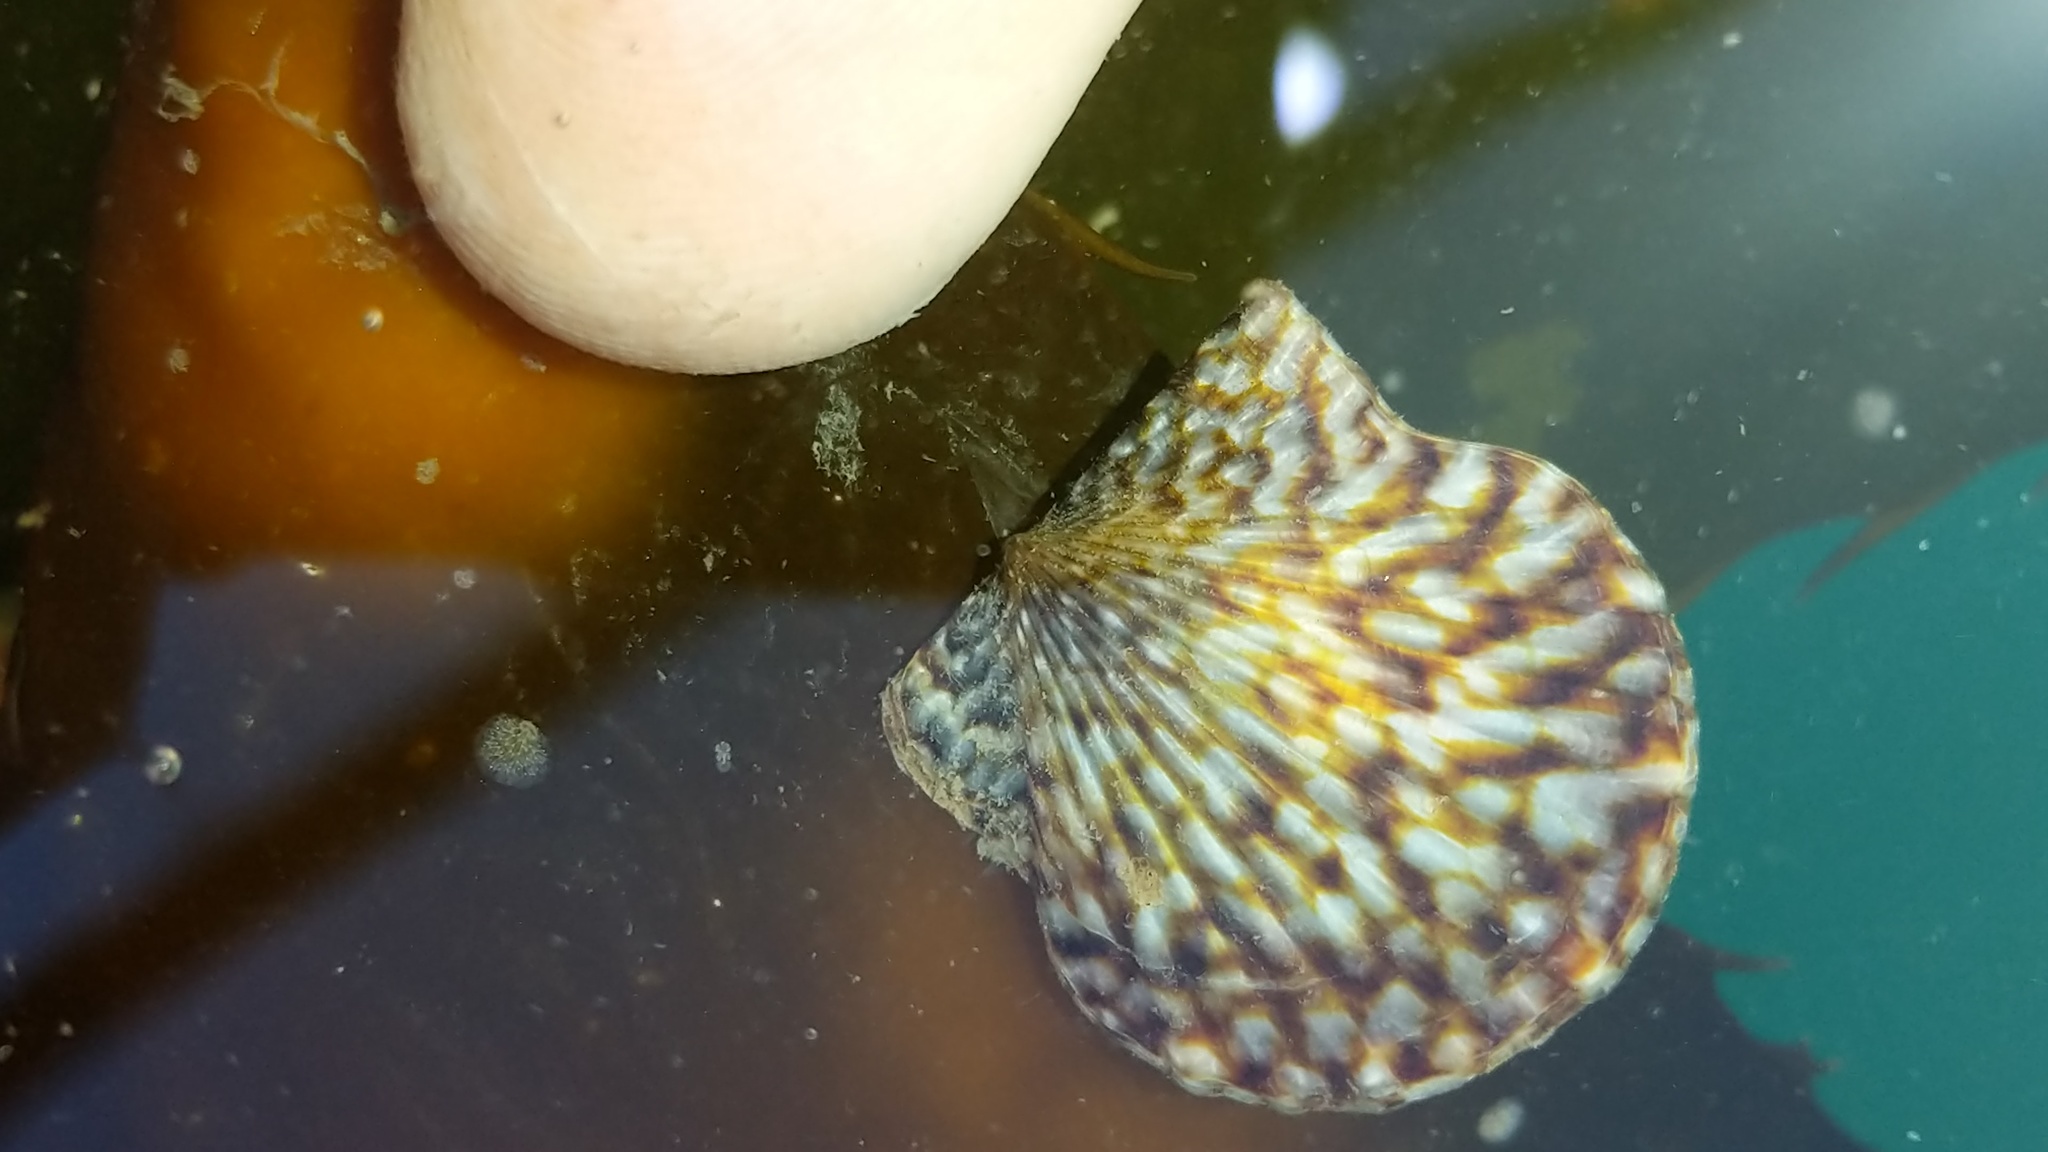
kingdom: Animalia
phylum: Mollusca
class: Bivalvia
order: Pectinida
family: Pectinidae
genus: Leptopecten
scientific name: Leptopecten latiauratus
